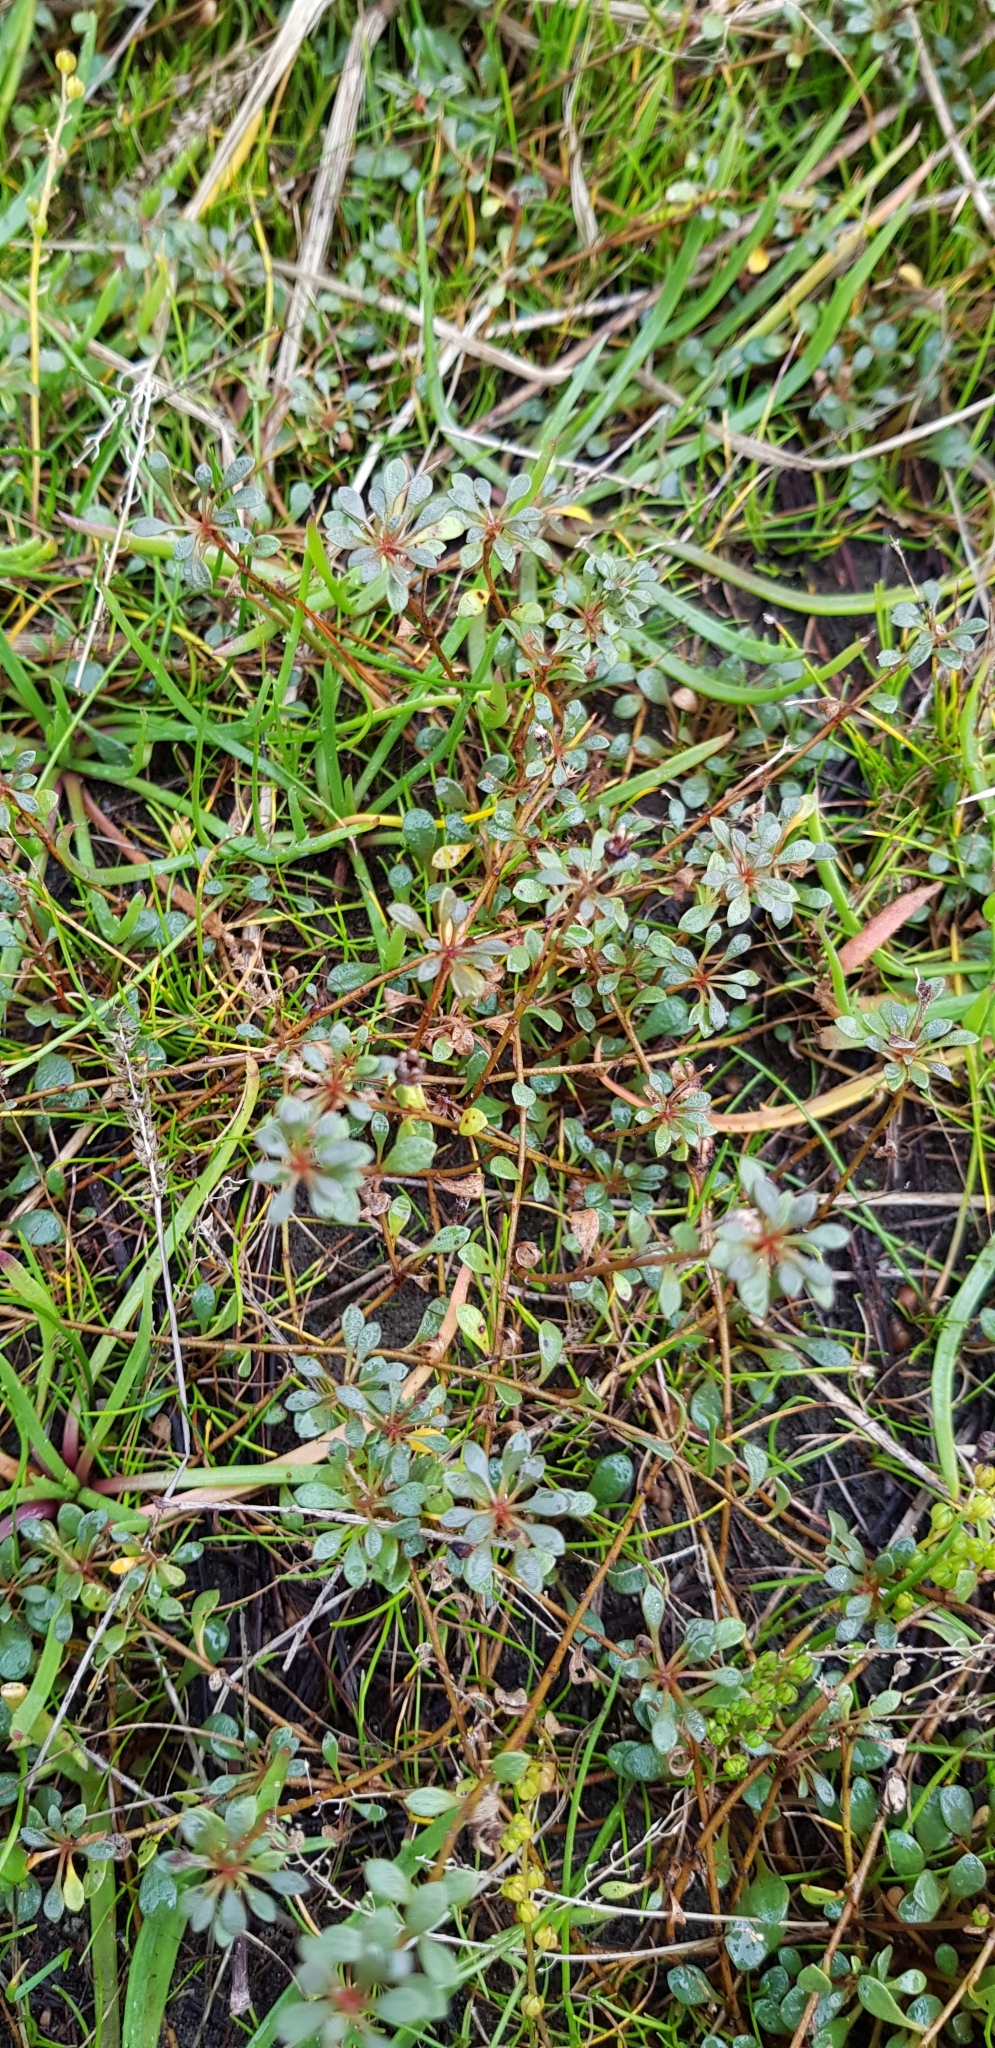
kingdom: Plantae
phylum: Tracheophyta
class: Magnoliopsida
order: Ericales
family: Primulaceae
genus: Samolus
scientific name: Samolus repens
